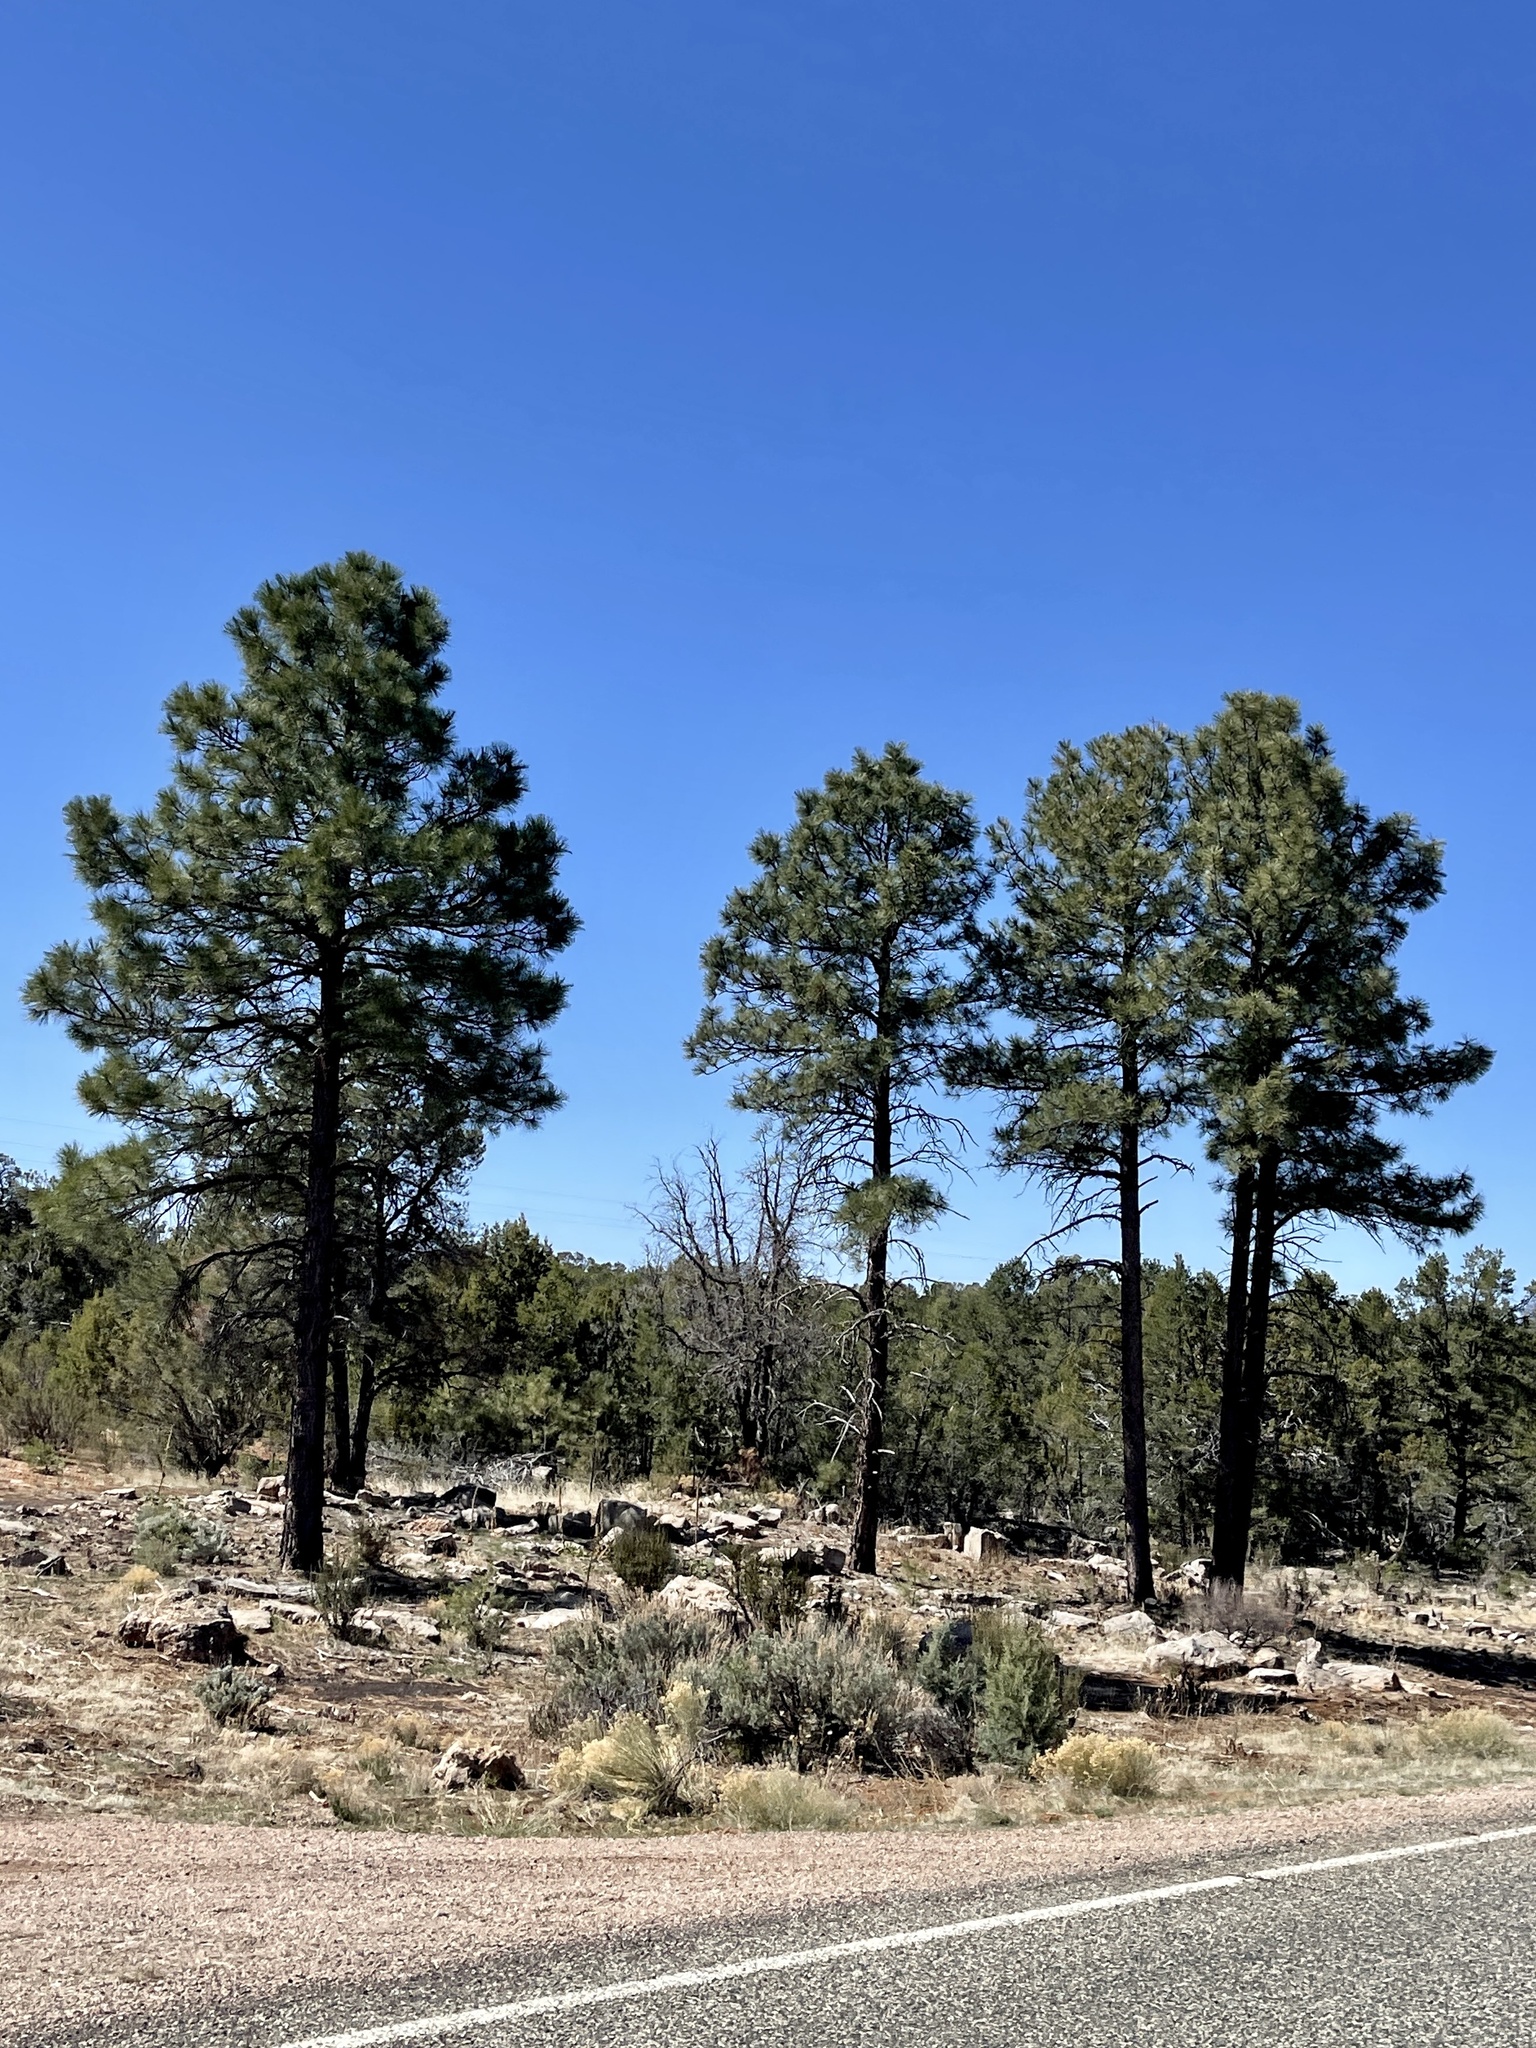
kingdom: Plantae
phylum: Tracheophyta
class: Pinopsida
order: Pinales
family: Pinaceae
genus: Pinus
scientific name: Pinus ponderosa
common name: Western yellow-pine
